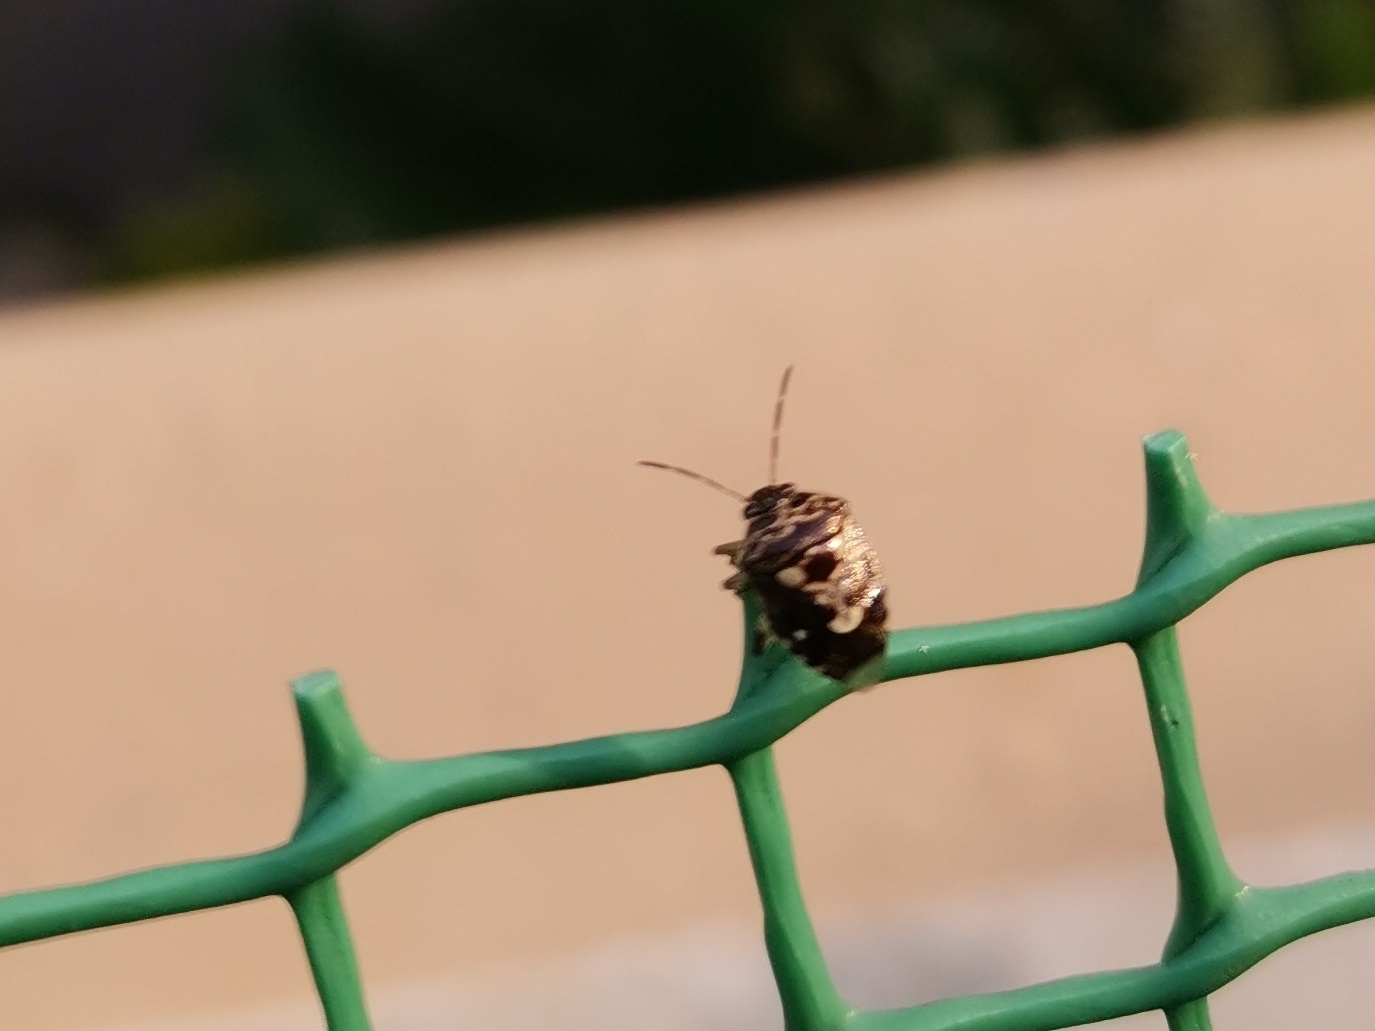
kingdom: Animalia
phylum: Arthropoda
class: Insecta
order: Hemiptera
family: Pentatomidae
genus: Menida
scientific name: Menida formosa
